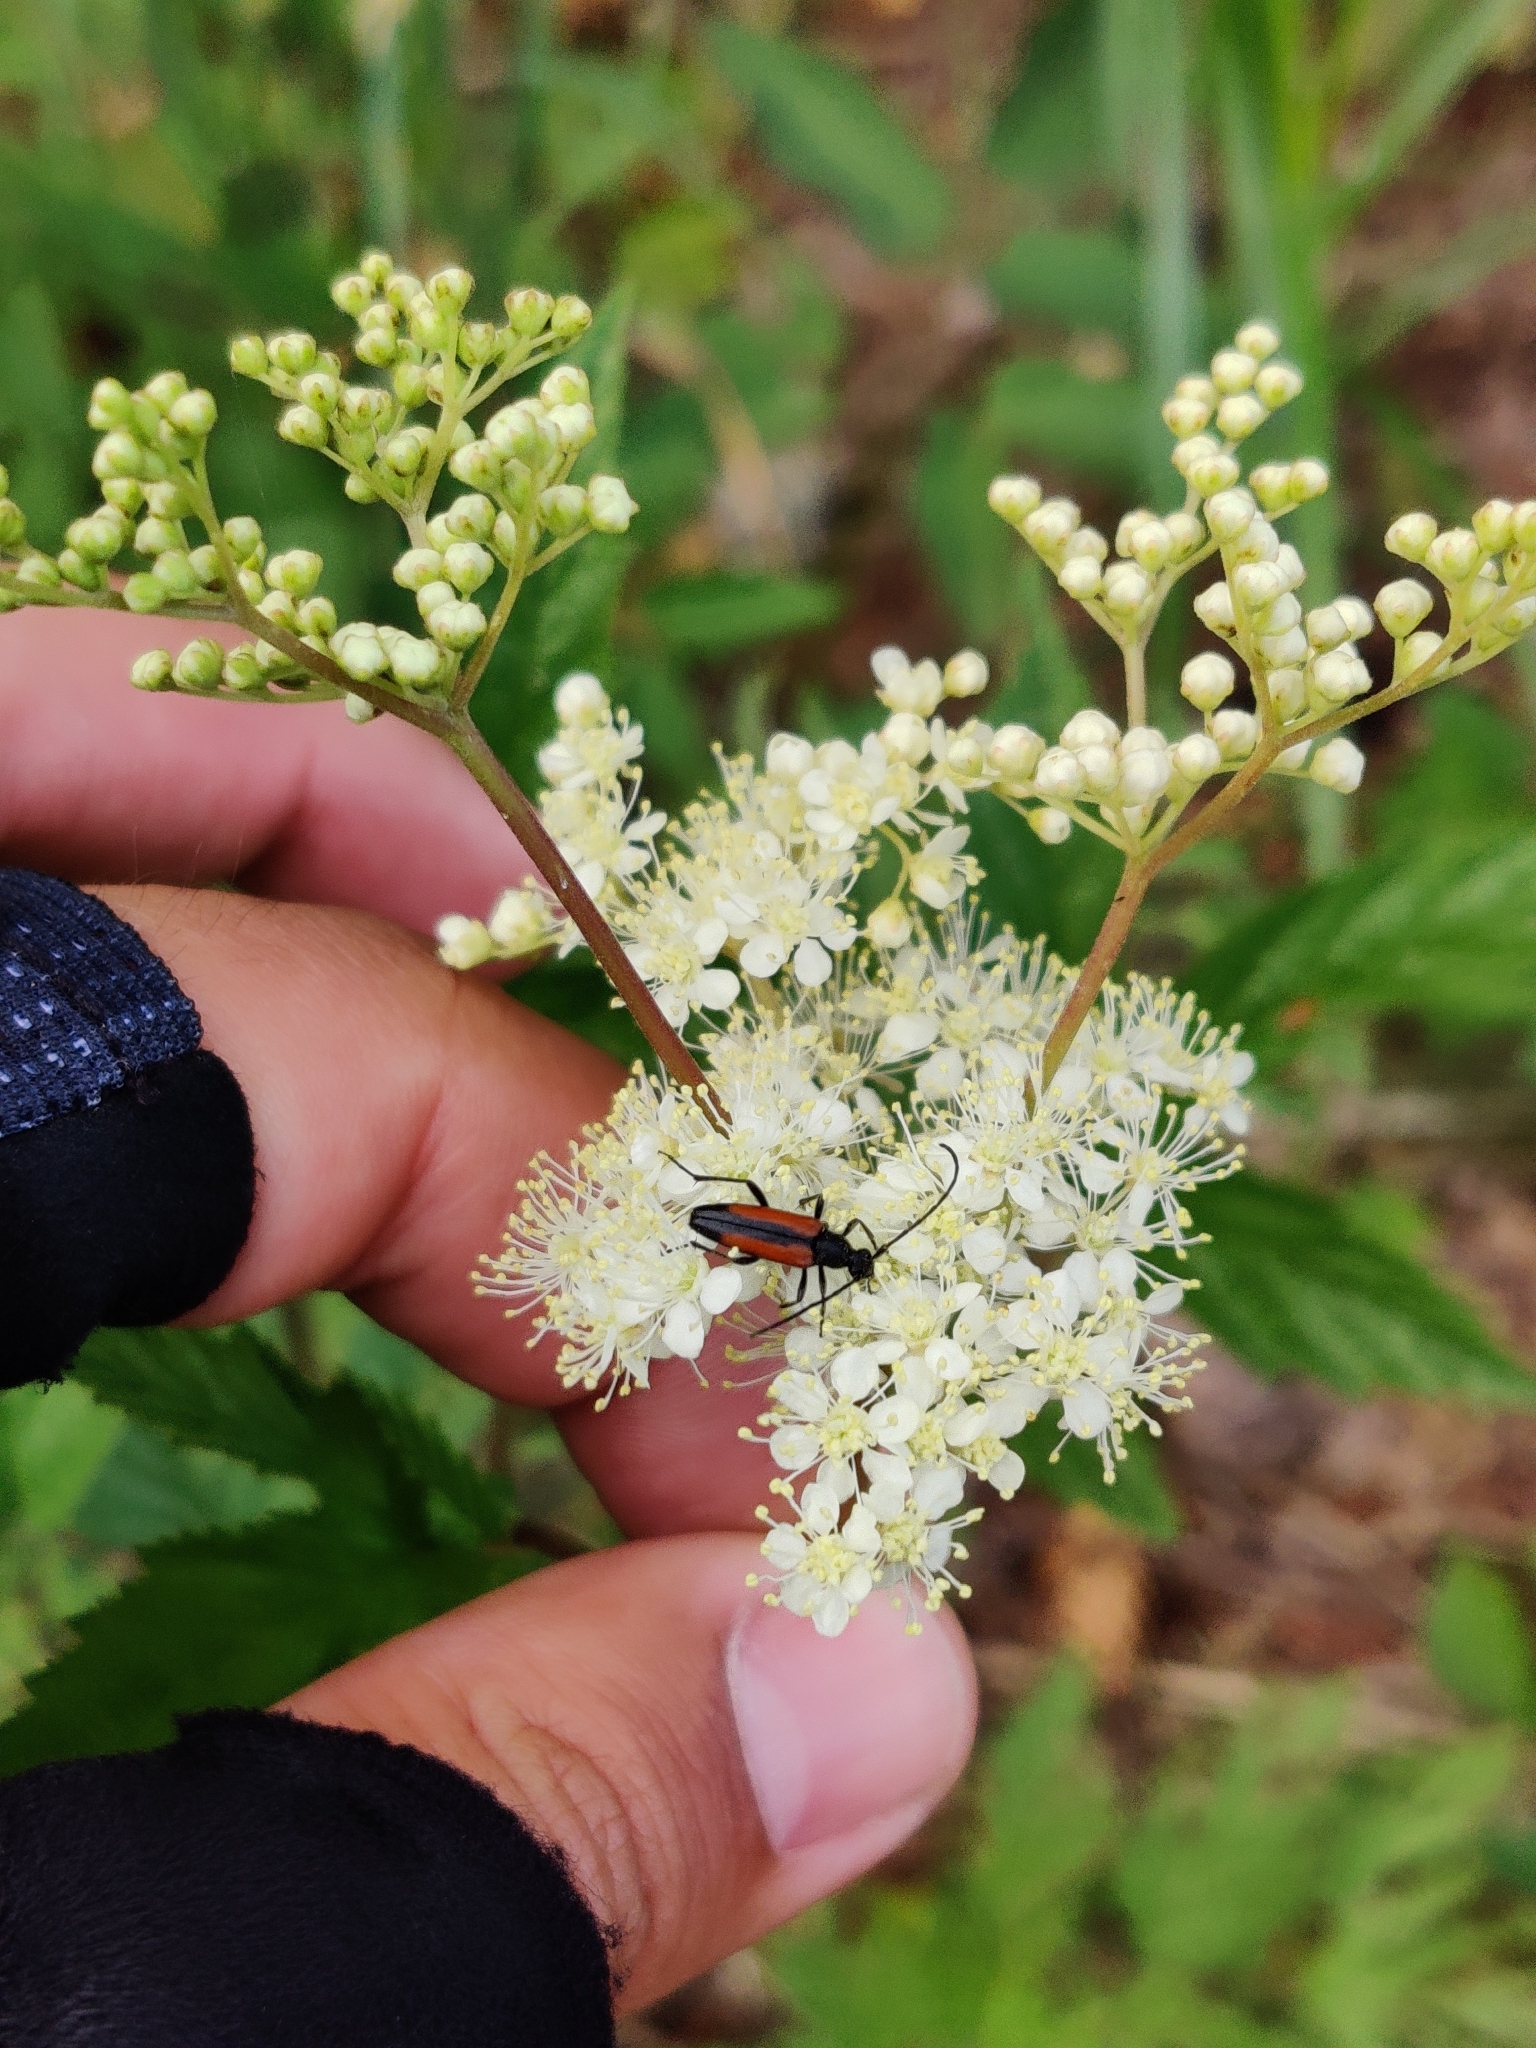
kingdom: Animalia
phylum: Arthropoda
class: Insecta
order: Coleoptera
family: Cerambycidae
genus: Stenurella
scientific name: Stenurella melanura
